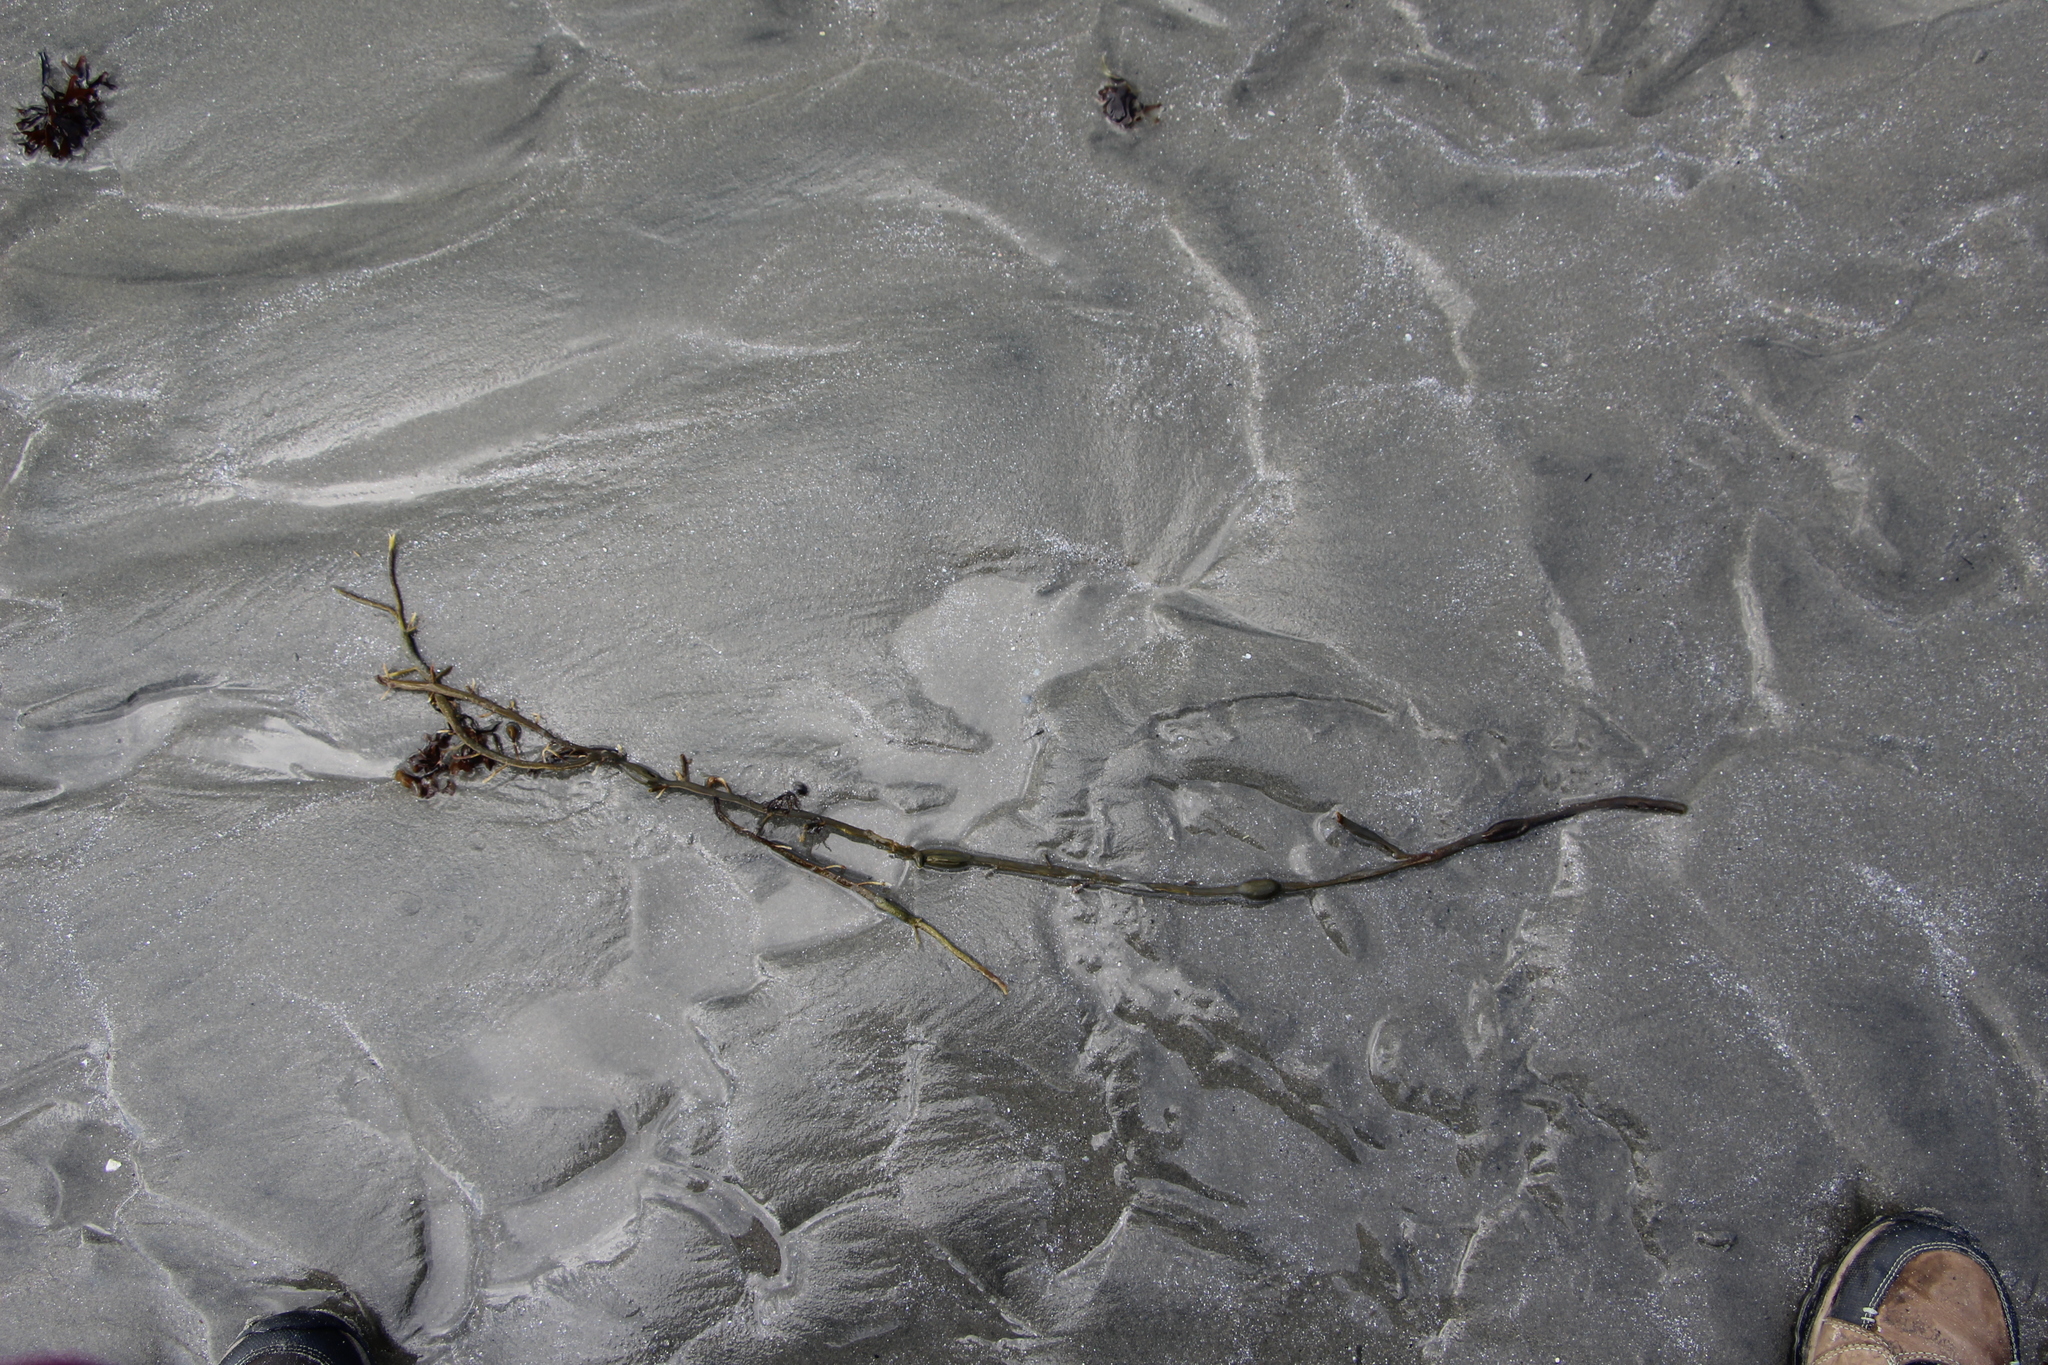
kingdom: Chromista
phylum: Ochrophyta
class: Phaeophyceae
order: Fucales
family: Fucaceae
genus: Ascophyllum
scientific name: Ascophyllum nodosum
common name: Knotted wrack
